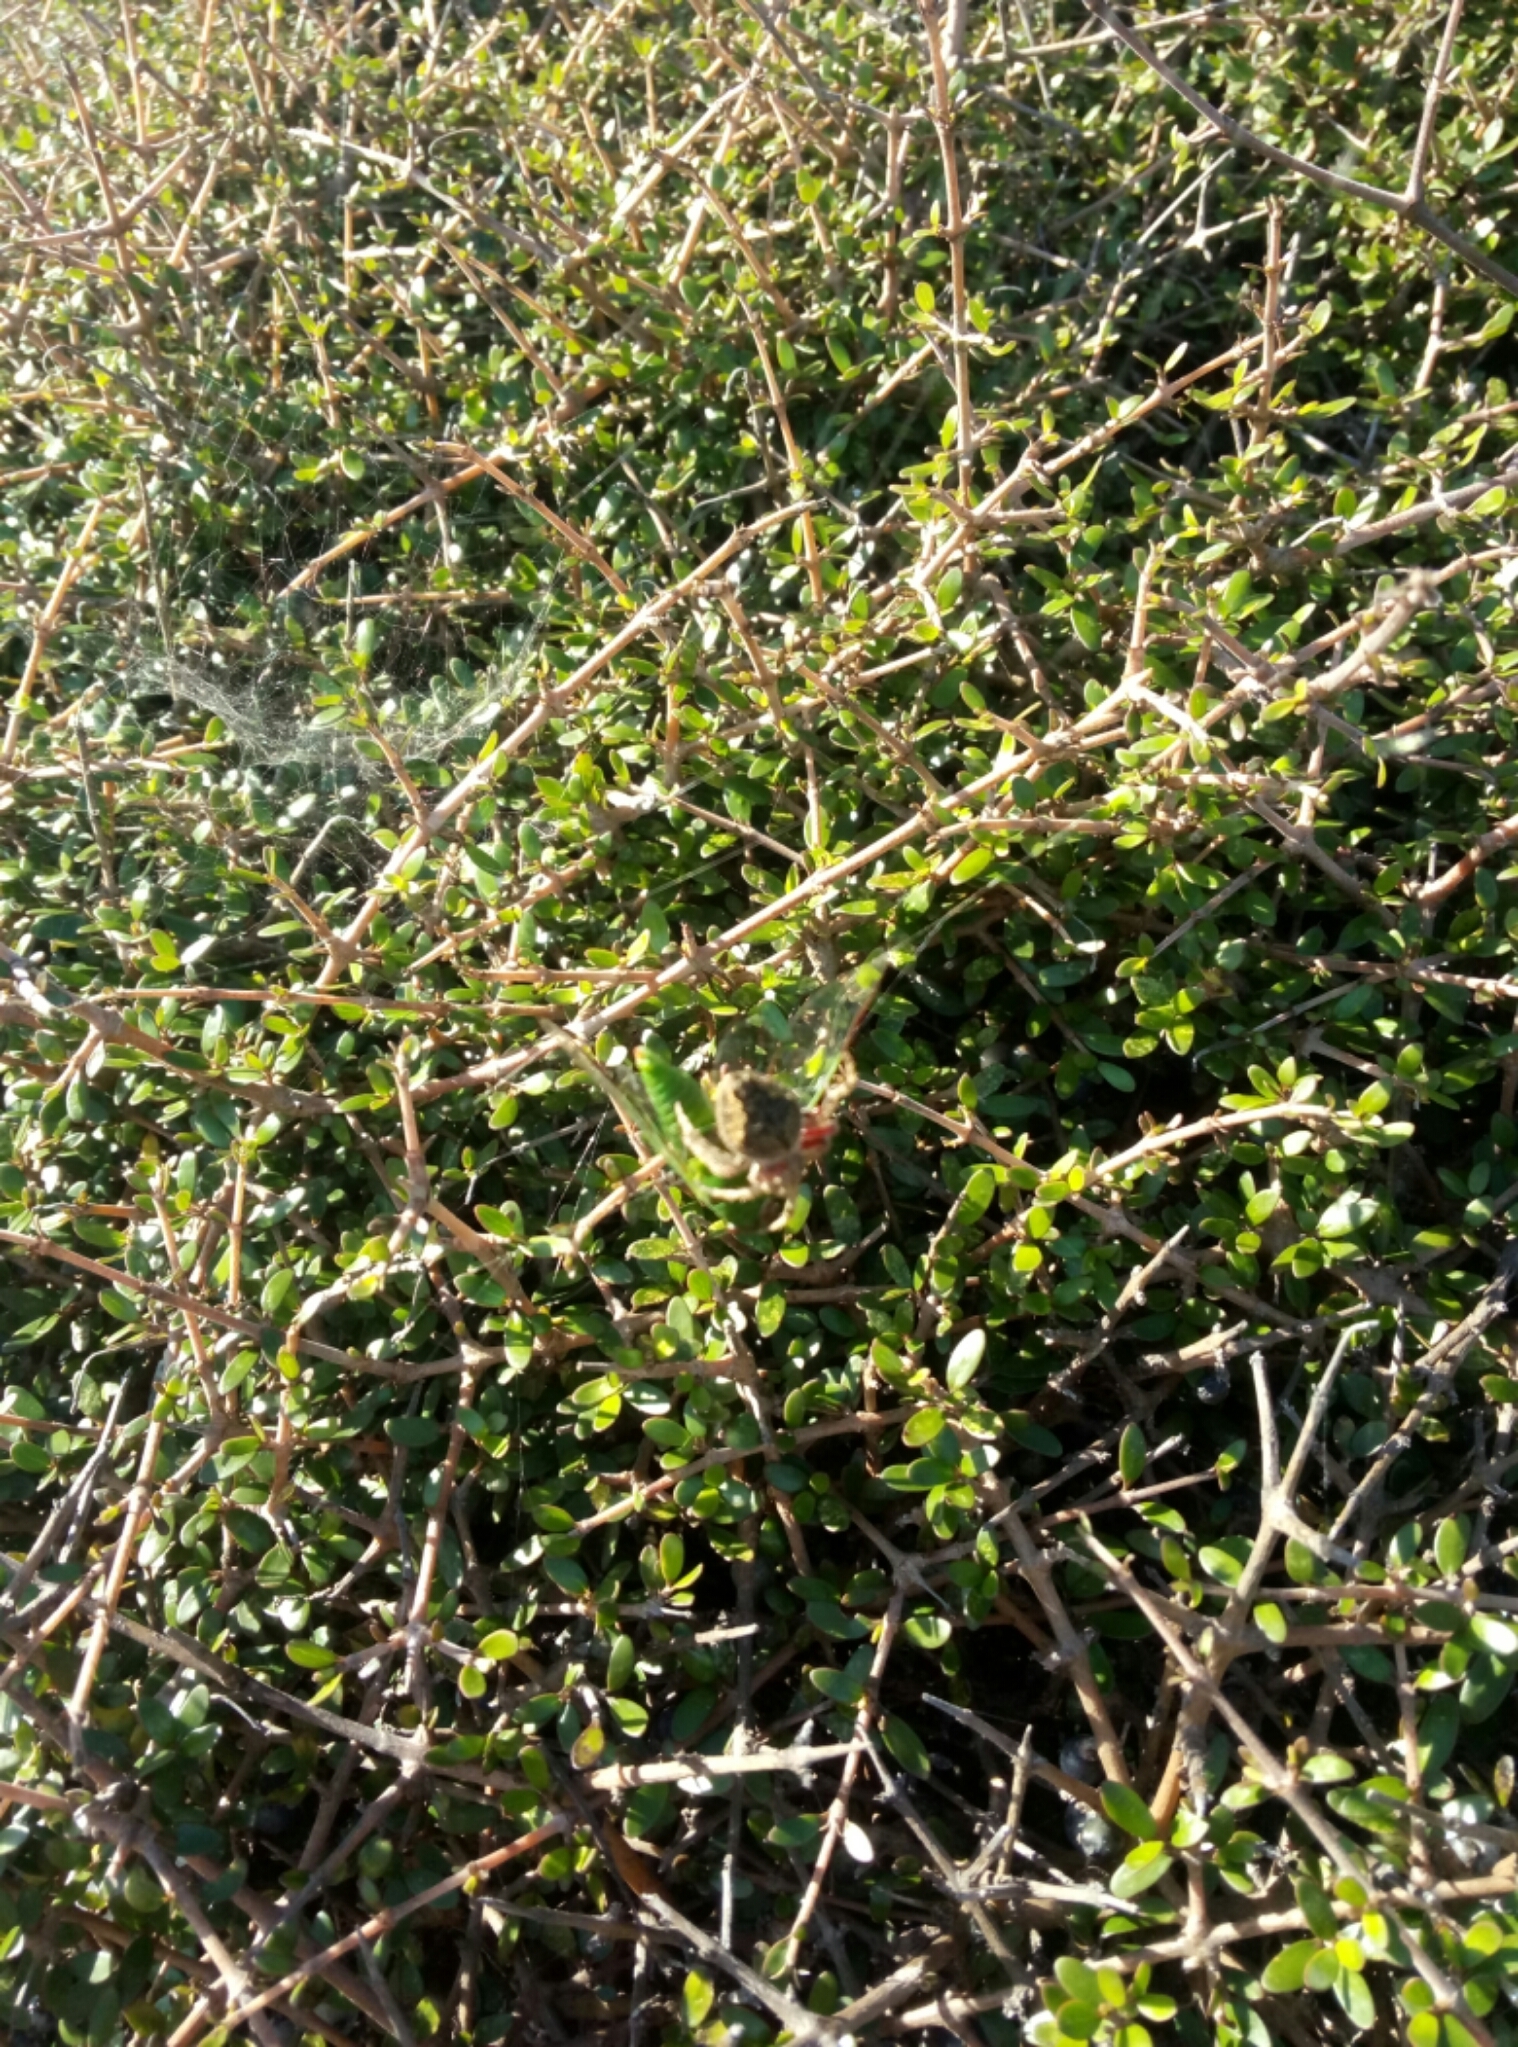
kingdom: Animalia
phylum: Arthropoda
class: Arachnida
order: Araneae
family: Araneidae
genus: Eriophora
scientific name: Eriophora pustulosa
